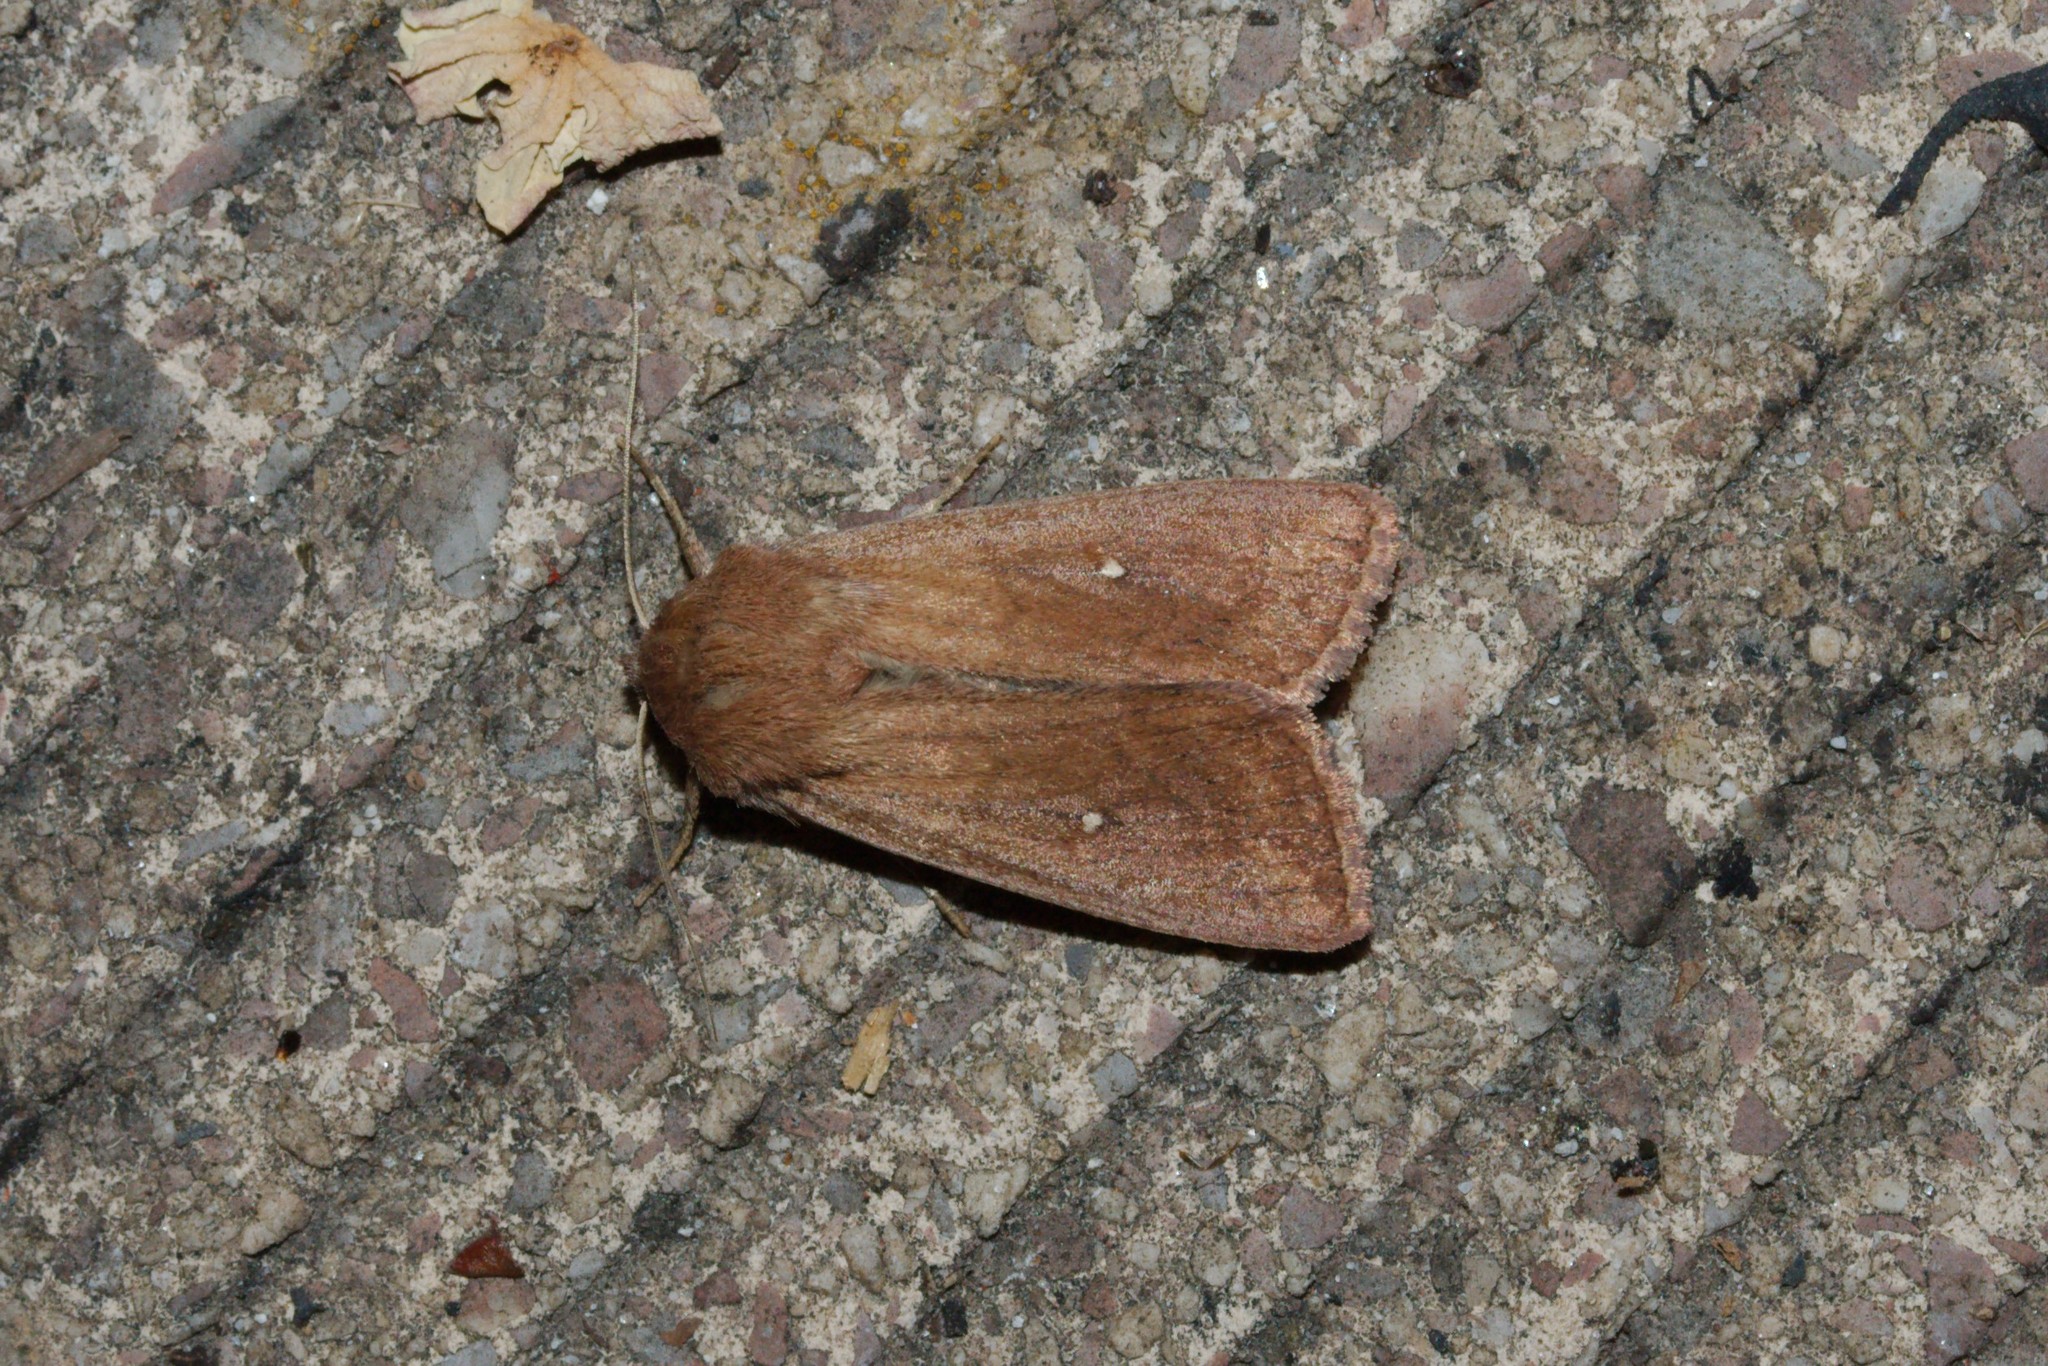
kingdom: Animalia
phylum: Arthropoda
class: Insecta
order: Lepidoptera
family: Noctuidae
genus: Mythimna
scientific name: Mythimna albipuncta
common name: White-point
